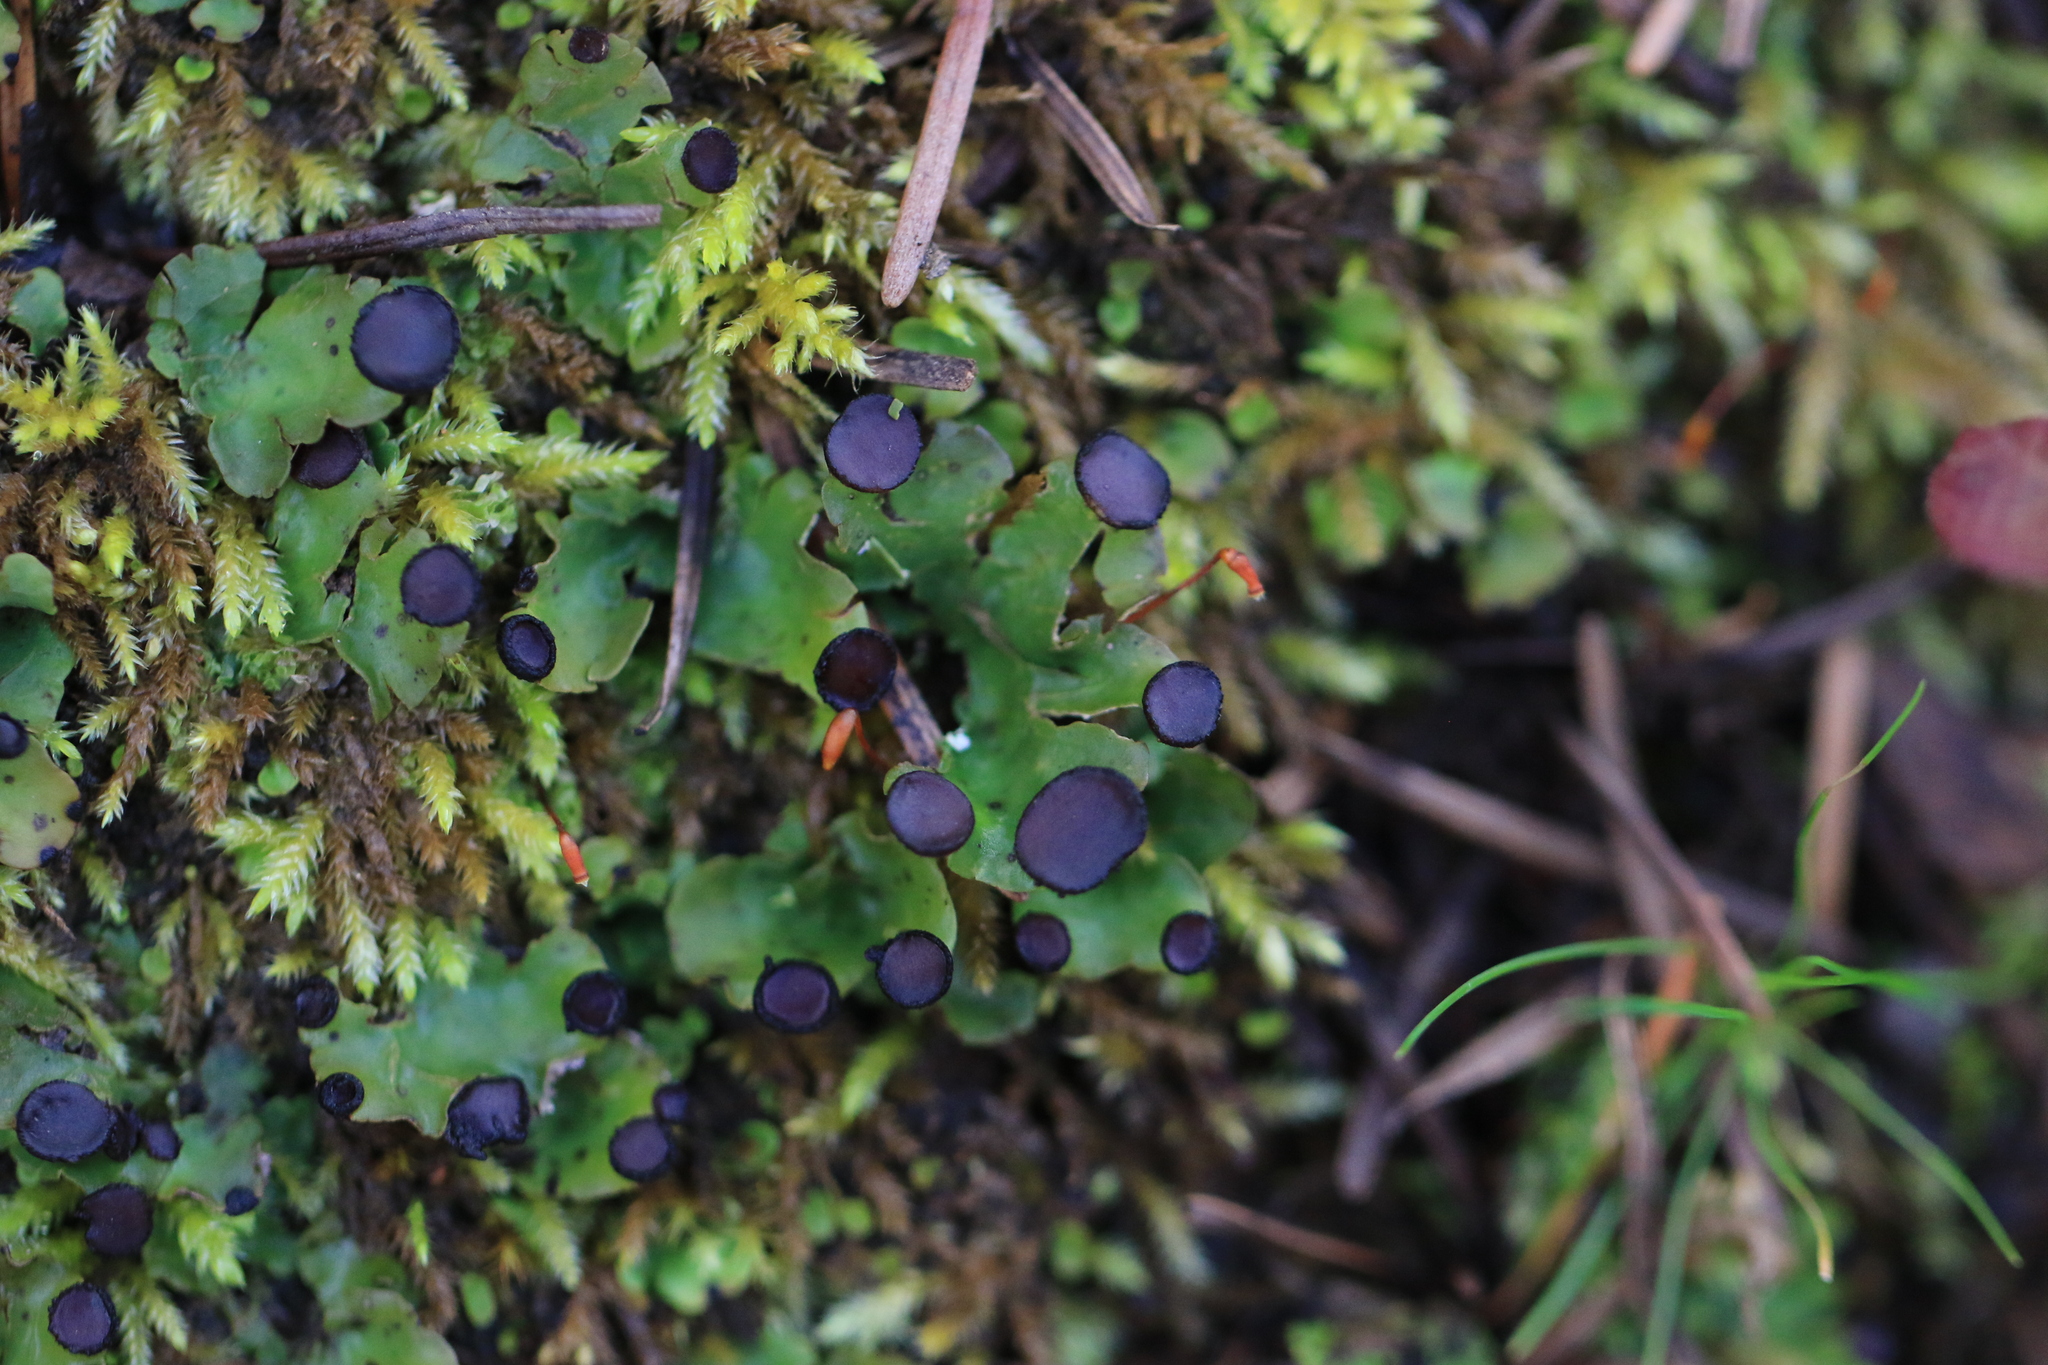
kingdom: Fungi
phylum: Ascomycota
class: Lecanoromycetes
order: Peltigerales
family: Peltigeraceae
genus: Peltigera
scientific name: Peltigera venosa
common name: Pixie gowns lichen
